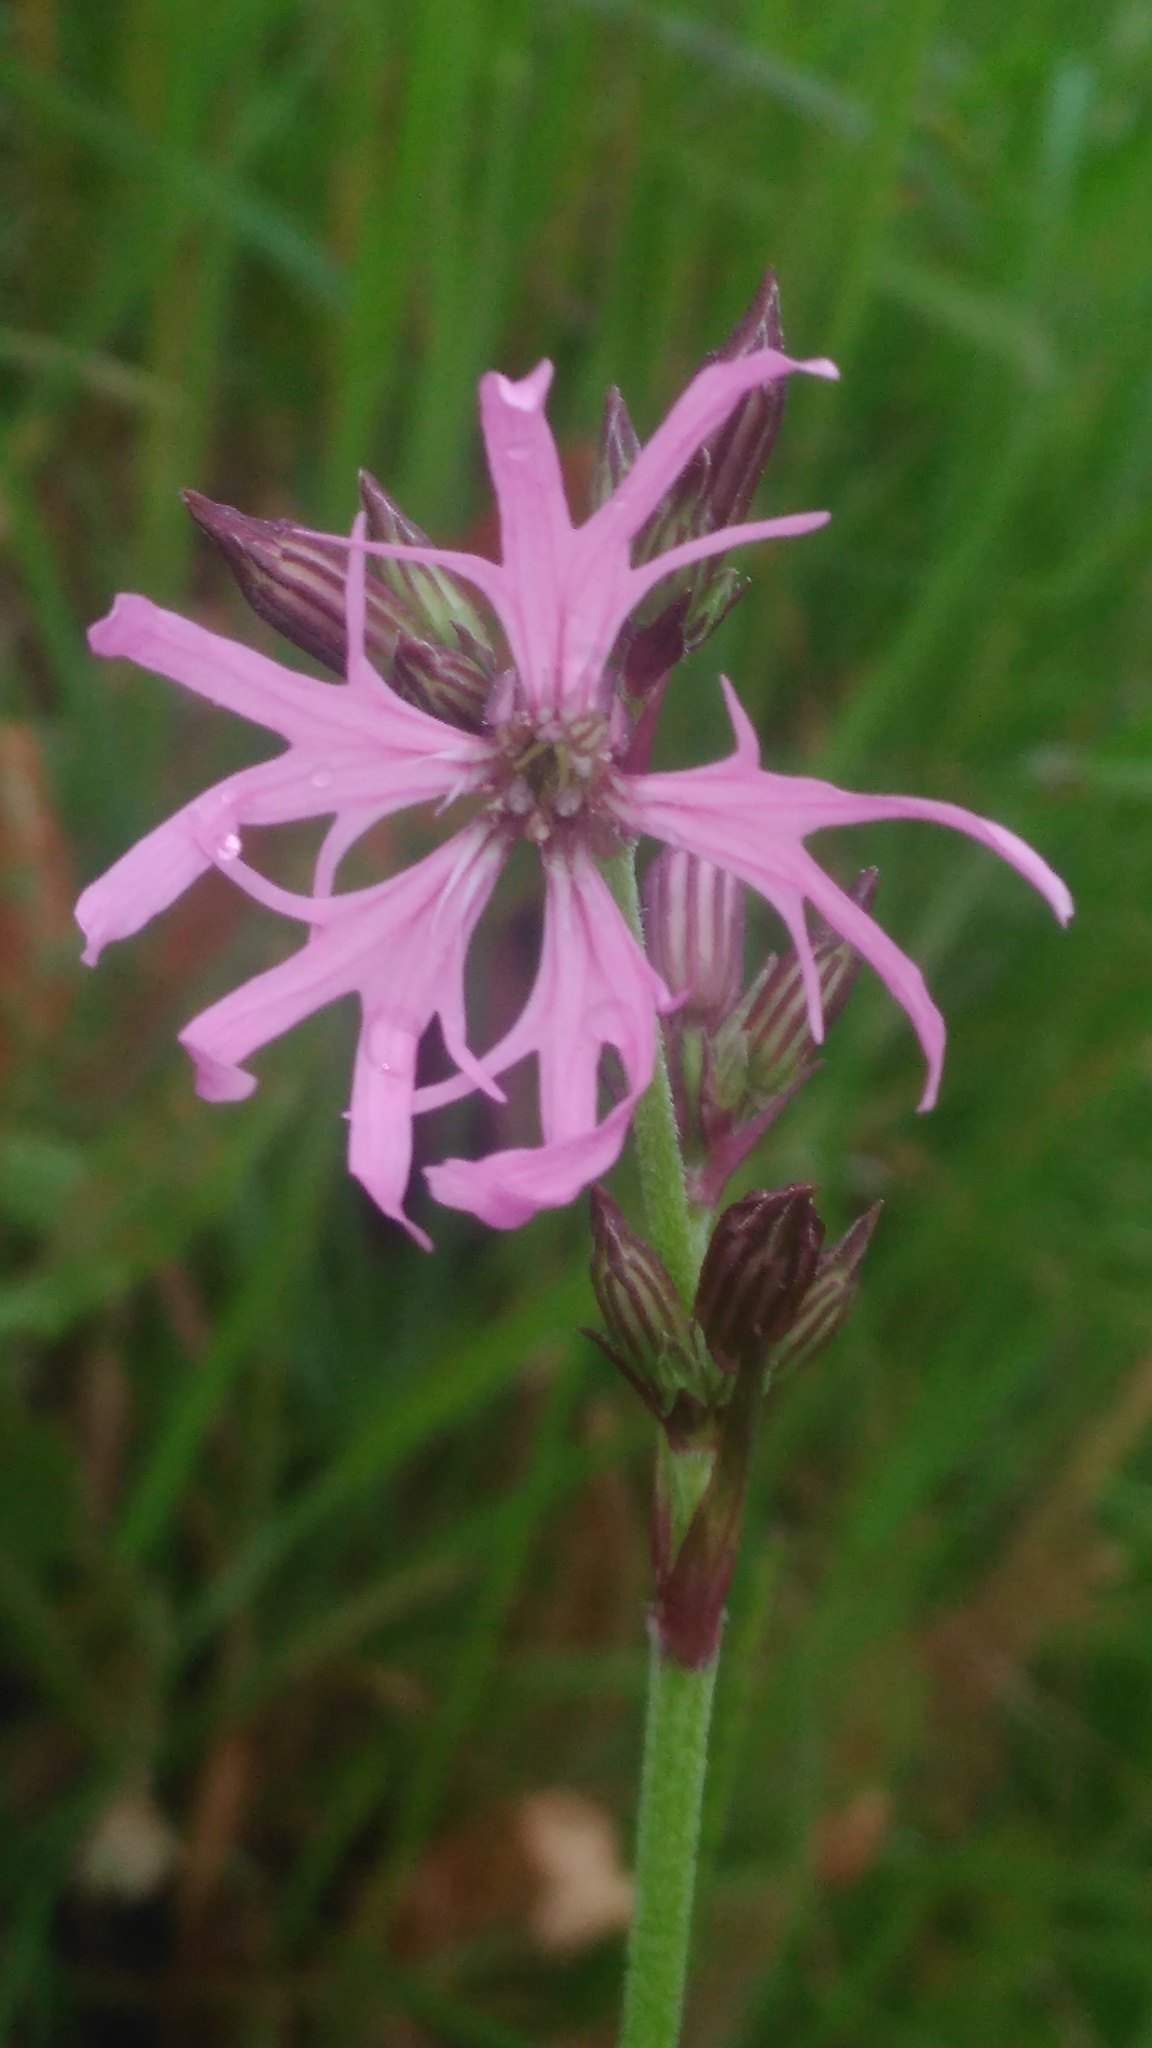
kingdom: Plantae
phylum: Tracheophyta
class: Magnoliopsida
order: Caryophyllales
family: Caryophyllaceae
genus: Silene
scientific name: Silene flos-cuculi
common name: Ragged-robin
